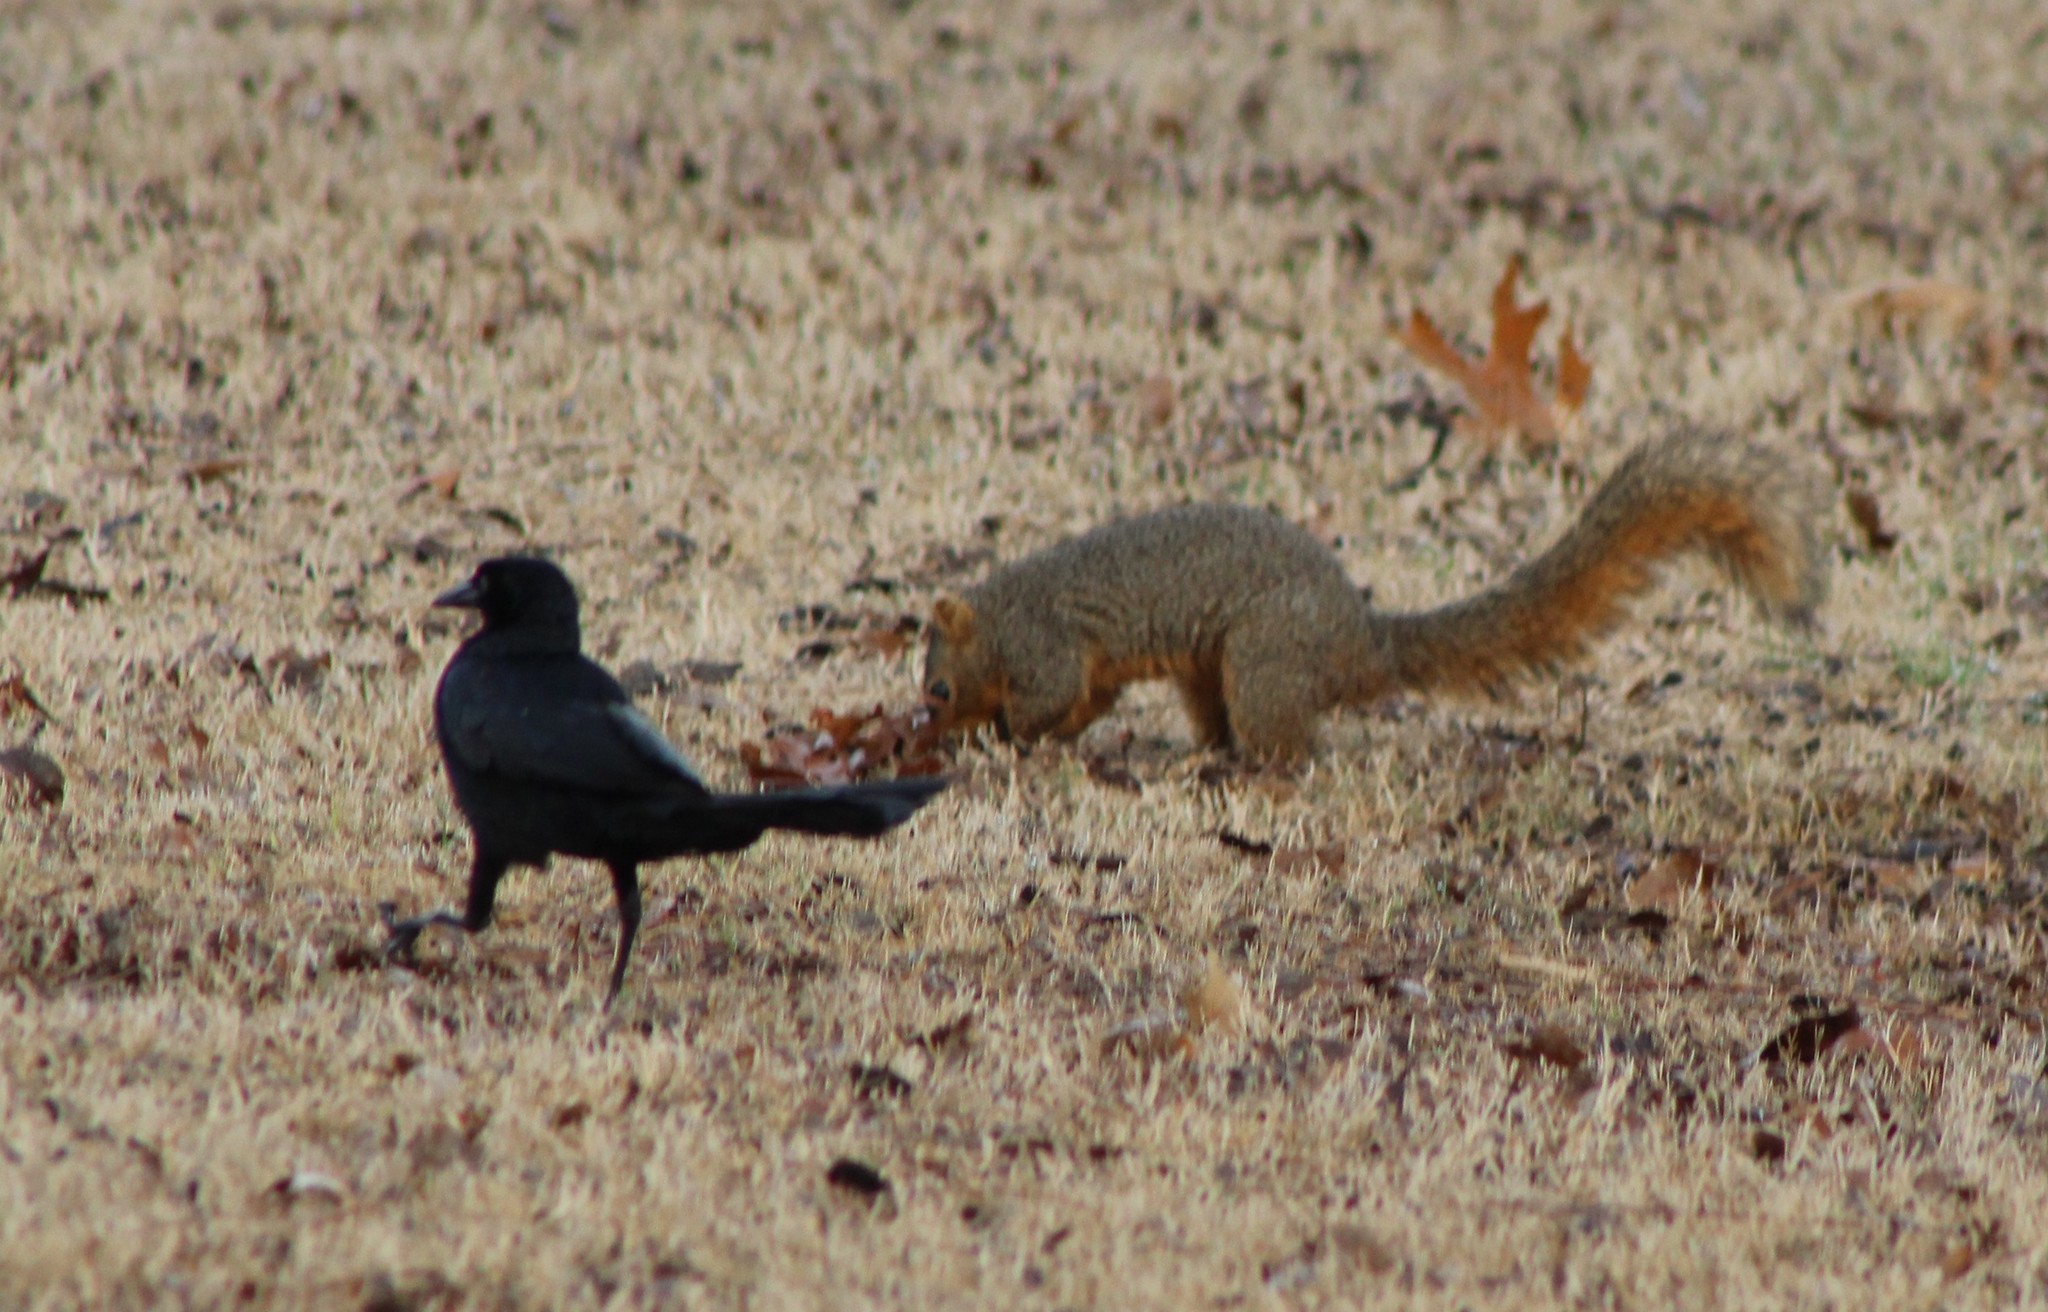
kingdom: Animalia
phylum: Chordata
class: Mammalia
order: Rodentia
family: Sciuridae
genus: Sciurus
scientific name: Sciurus niger
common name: Fox squirrel
